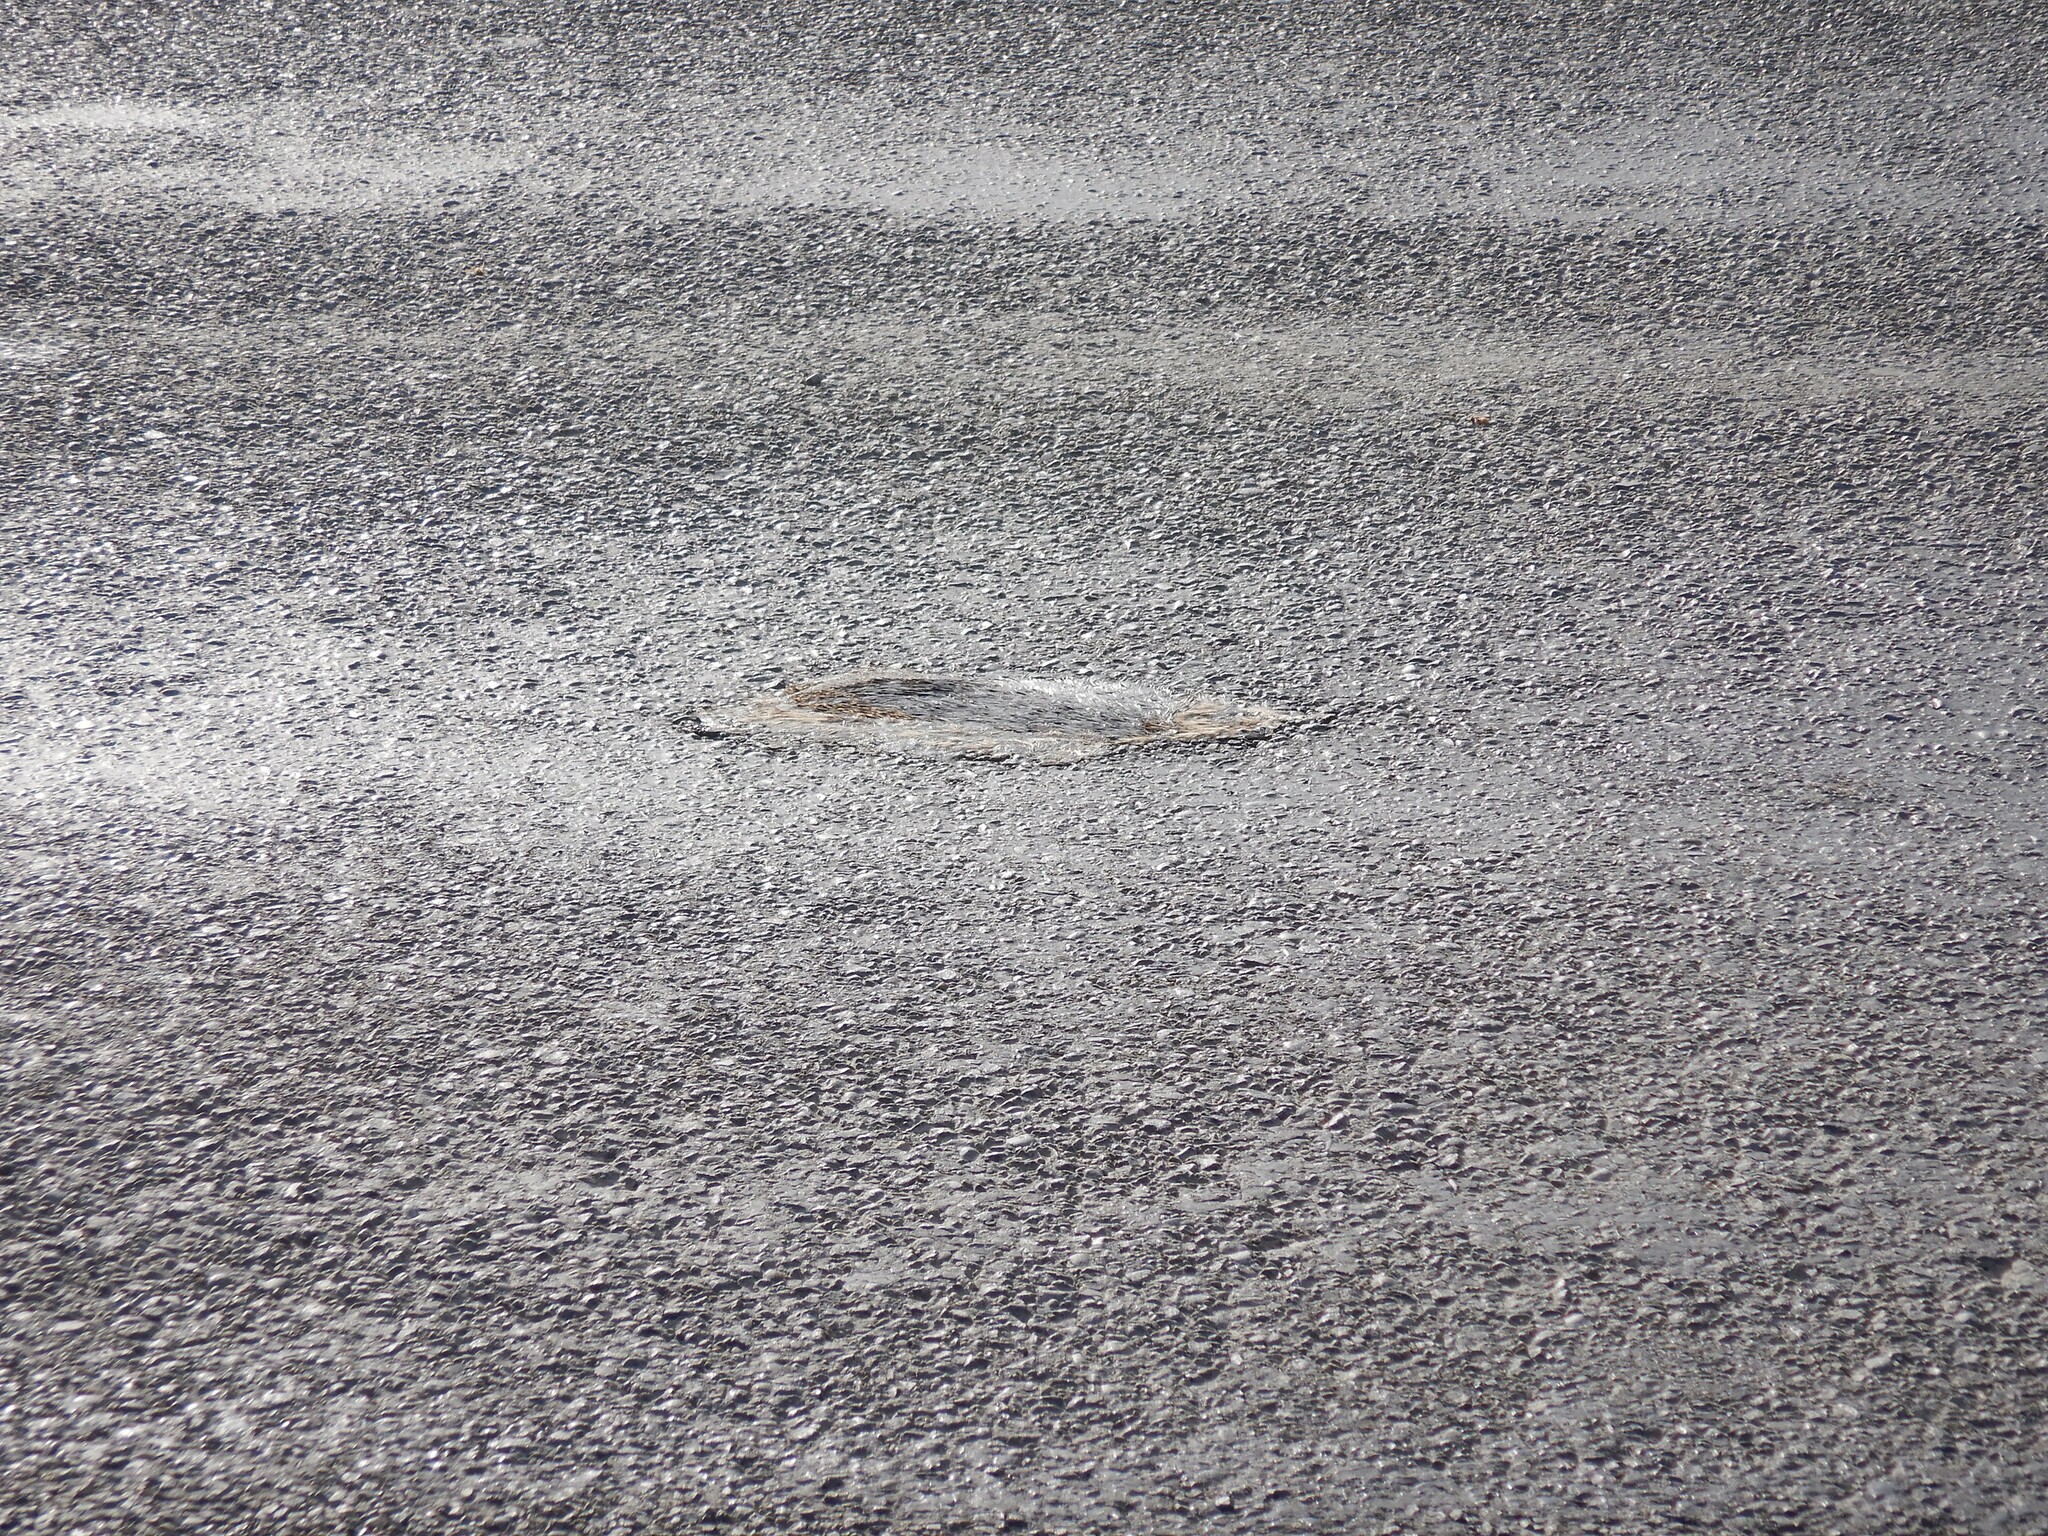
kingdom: Animalia
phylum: Chordata
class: Mammalia
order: Erinaceomorpha
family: Erinaceidae
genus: Erinaceus
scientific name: Erinaceus europaeus
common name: West european hedgehog
